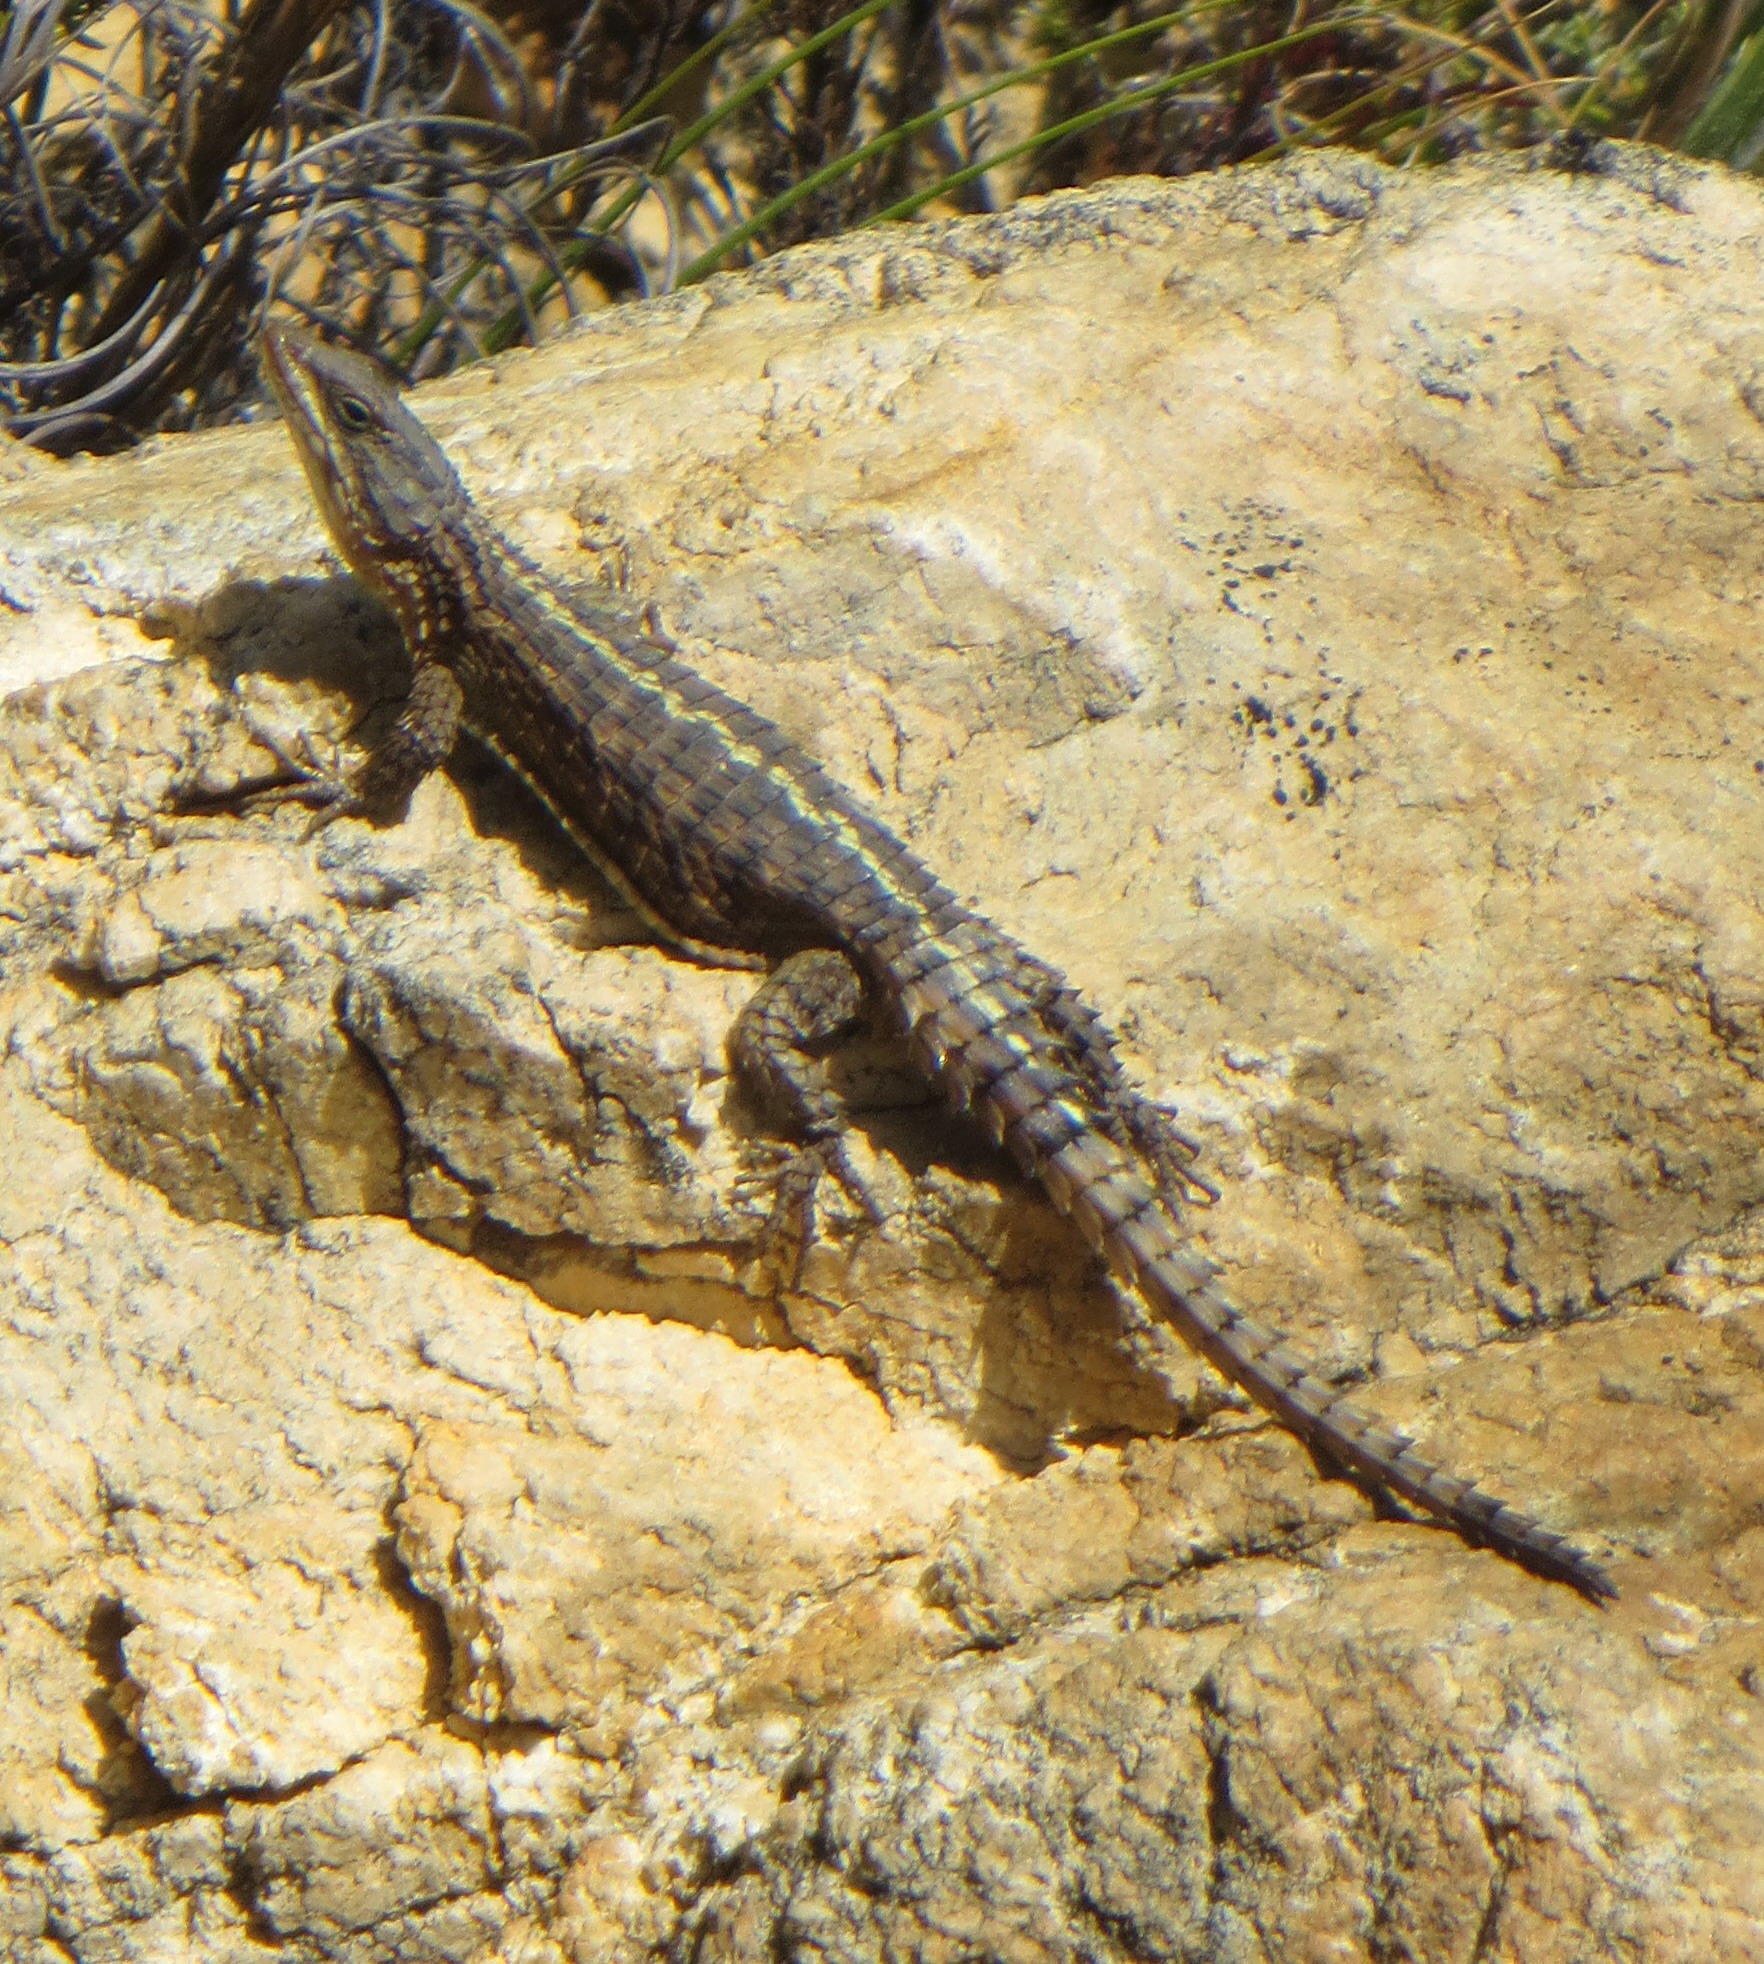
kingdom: Animalia
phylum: Chordata
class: Squamata
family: Cordylidae
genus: Cordylus
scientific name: Cordylus cordylus
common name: Cape girdled lizard
